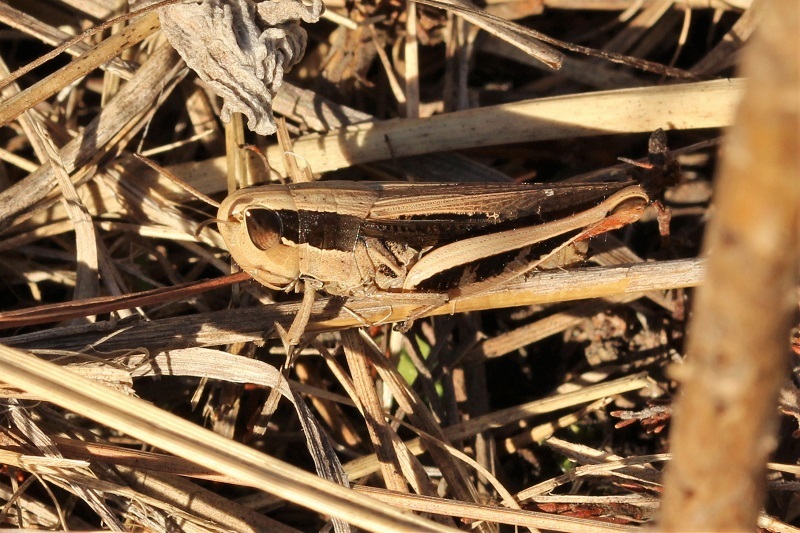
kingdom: Animalia
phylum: Arthropoda
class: Insecta
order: Orthoptera
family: Acrididae
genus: Pnorisa
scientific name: Pnorisa squalus
